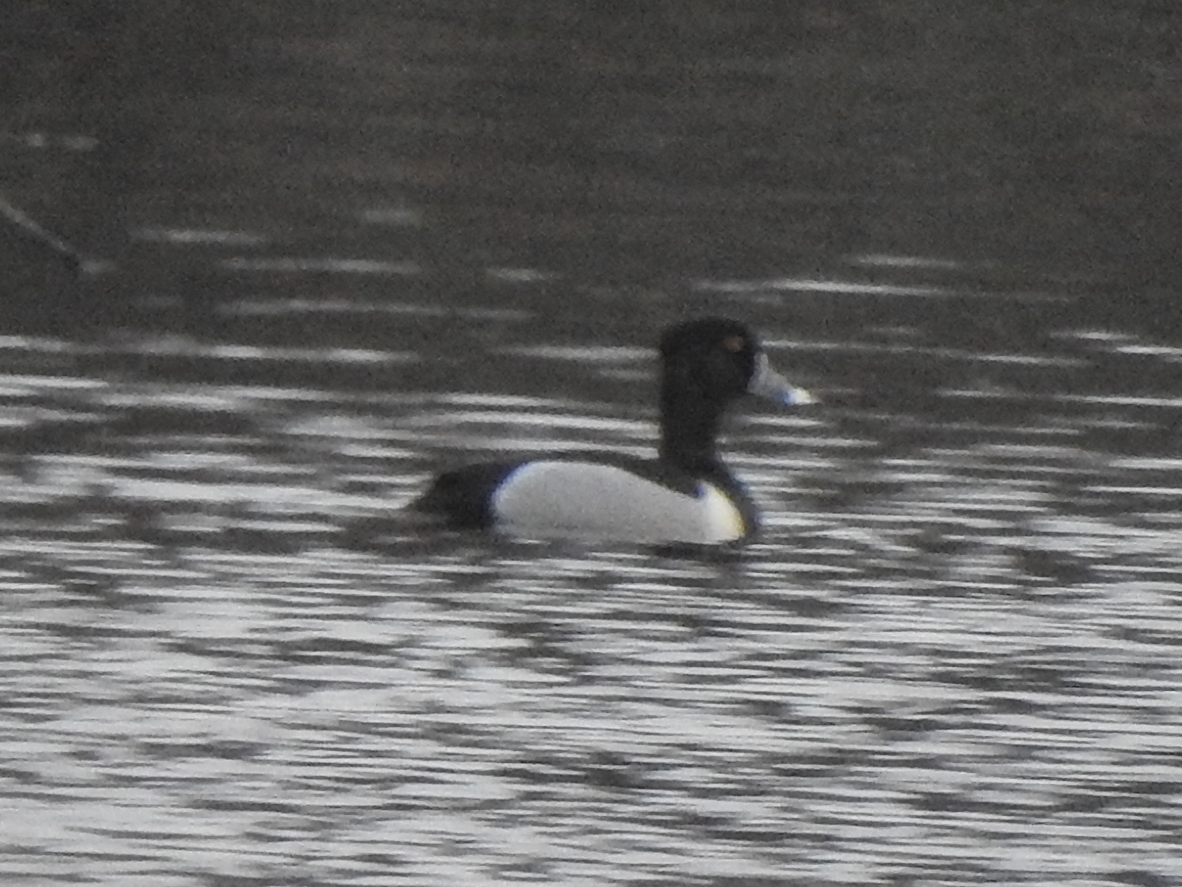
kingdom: Animalia
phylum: Chordata
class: Aves
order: Anseriformes
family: Anatidae
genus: Aythya
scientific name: Aythya collaris
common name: Ring-necked duck
